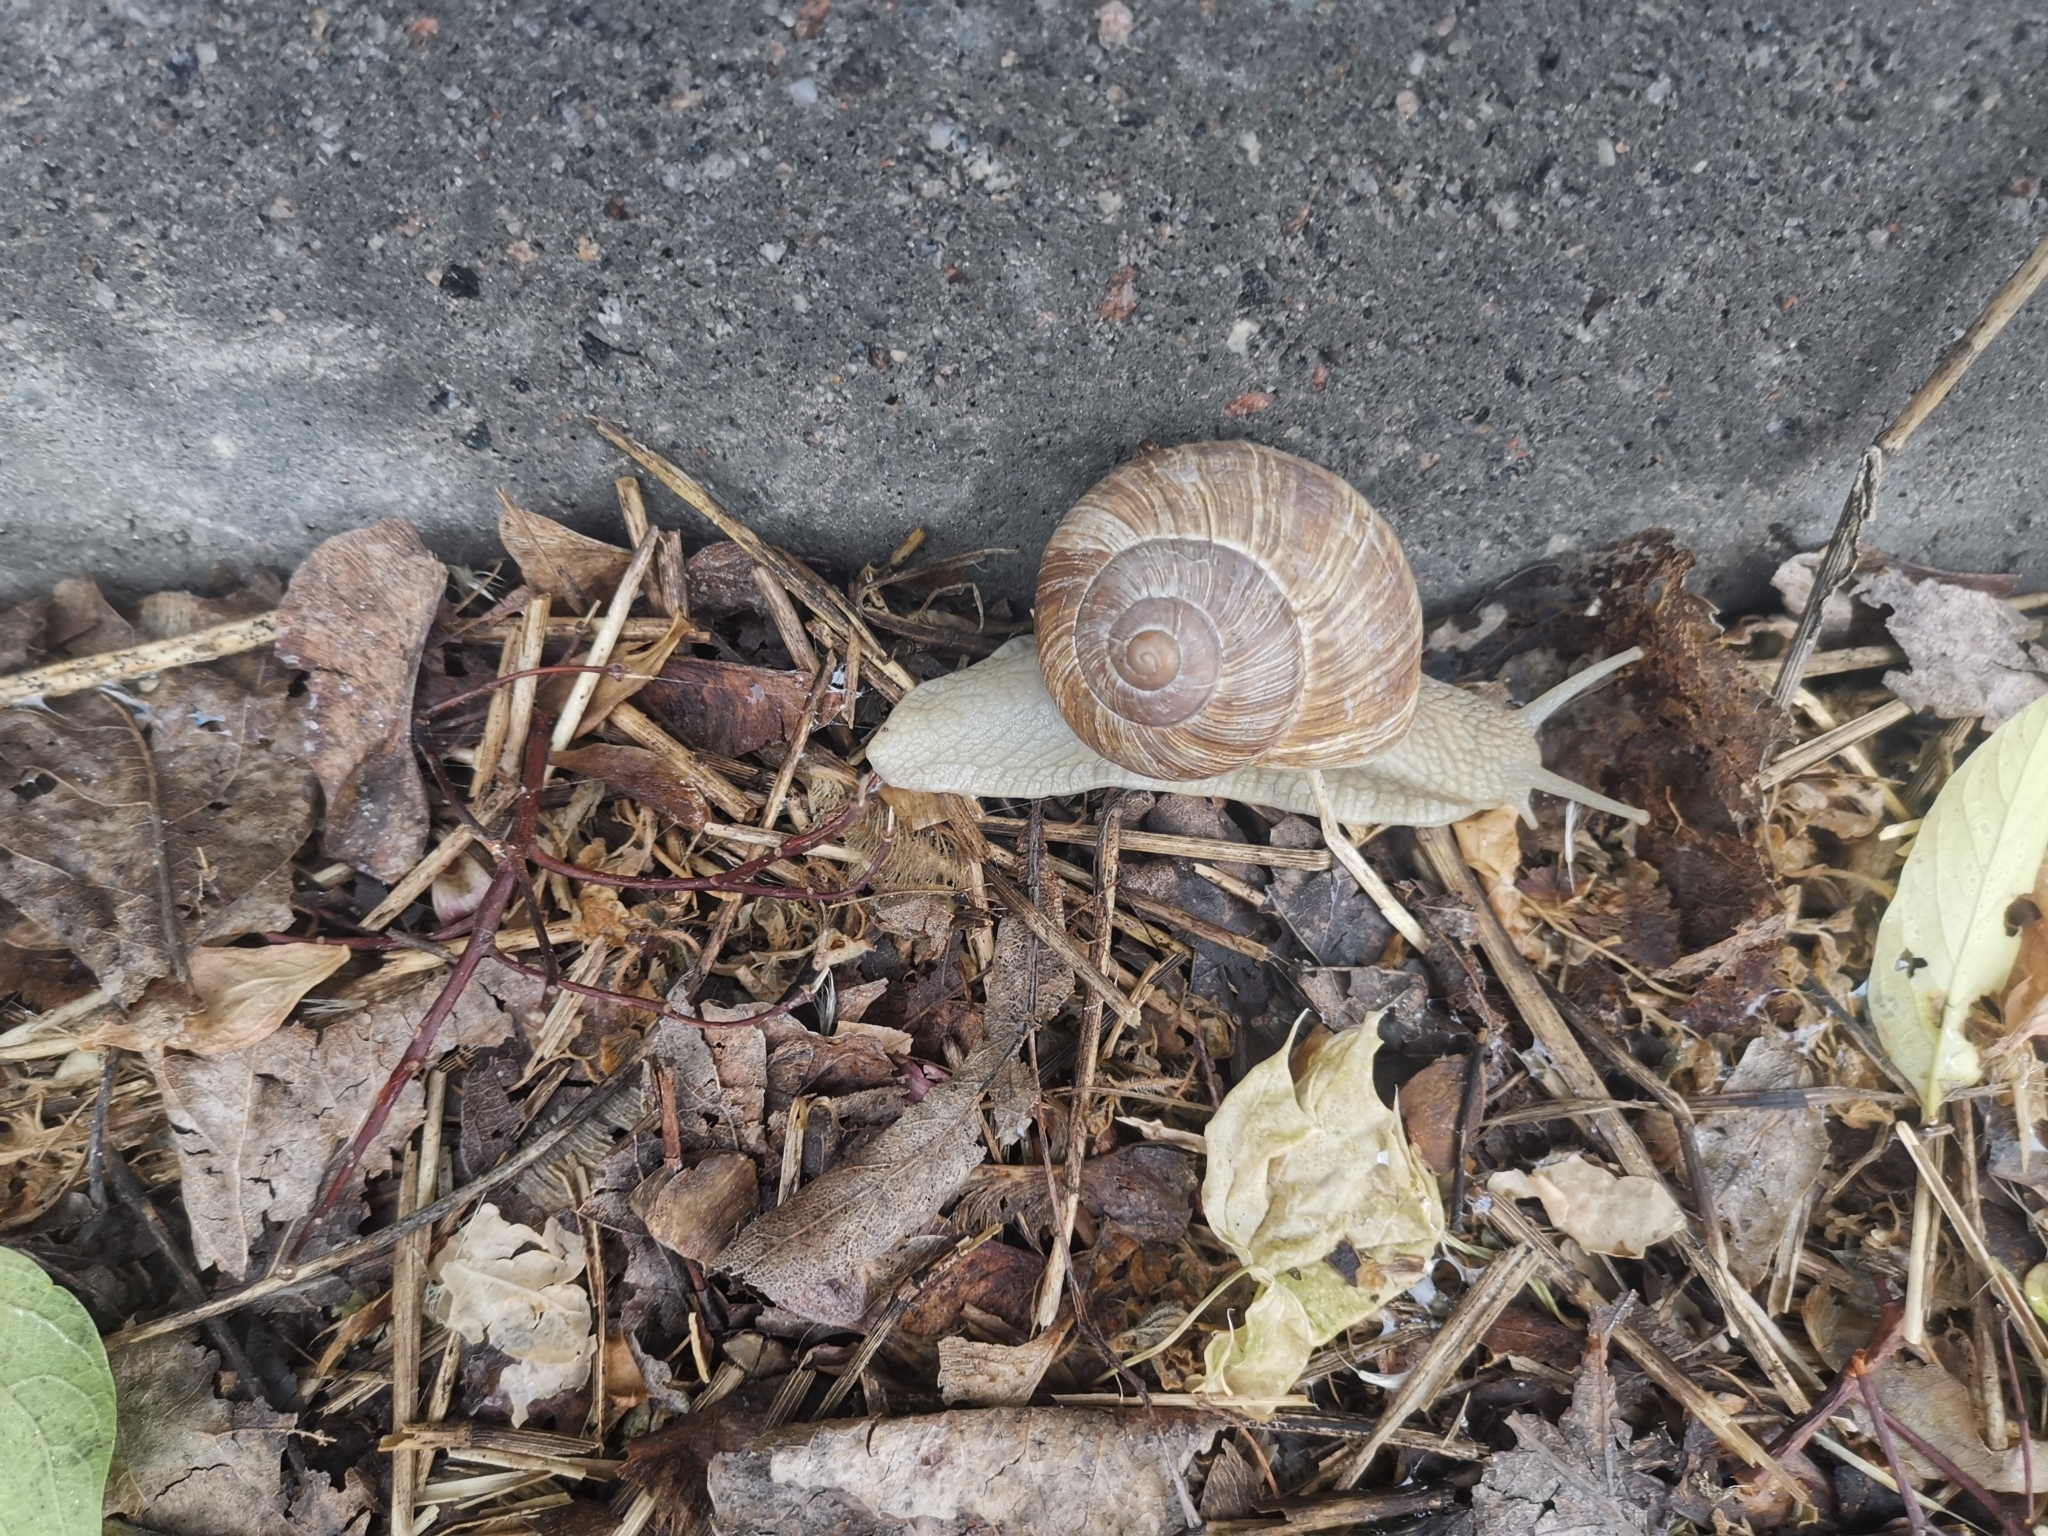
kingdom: Animalia
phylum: Mollusca
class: Gastropoda
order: Stylommatophora
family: Helicidae
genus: Helix
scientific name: Helix pomatia
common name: Roman snail
